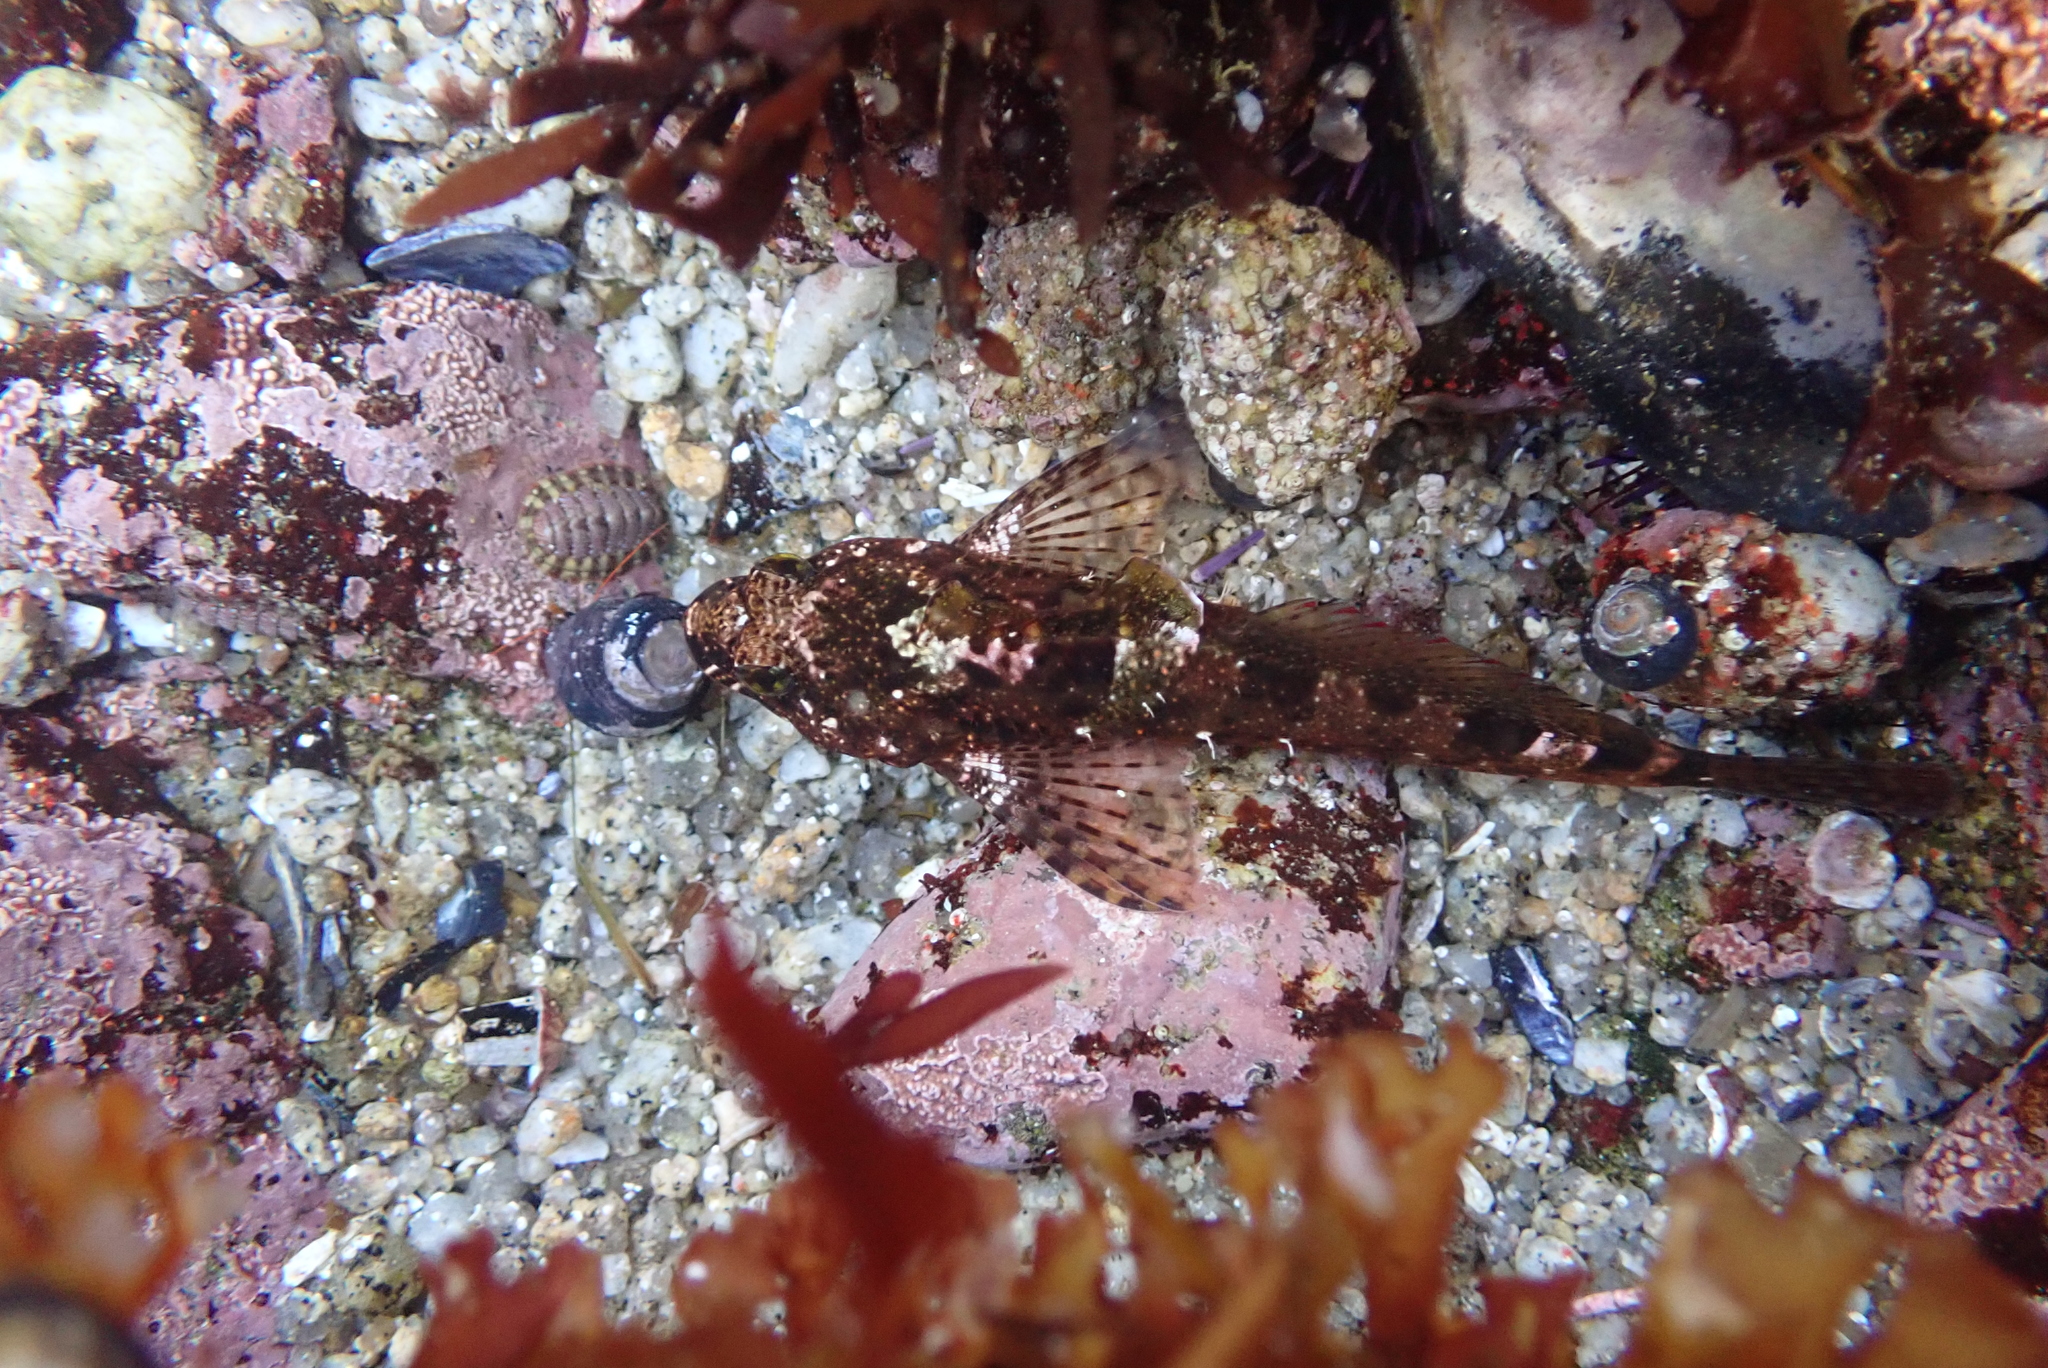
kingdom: Animalia
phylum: Chordata
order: Scorpaeniformes
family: Cottidae
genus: Clinocottus
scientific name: Clinocottus analis
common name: Woolly sculpin
